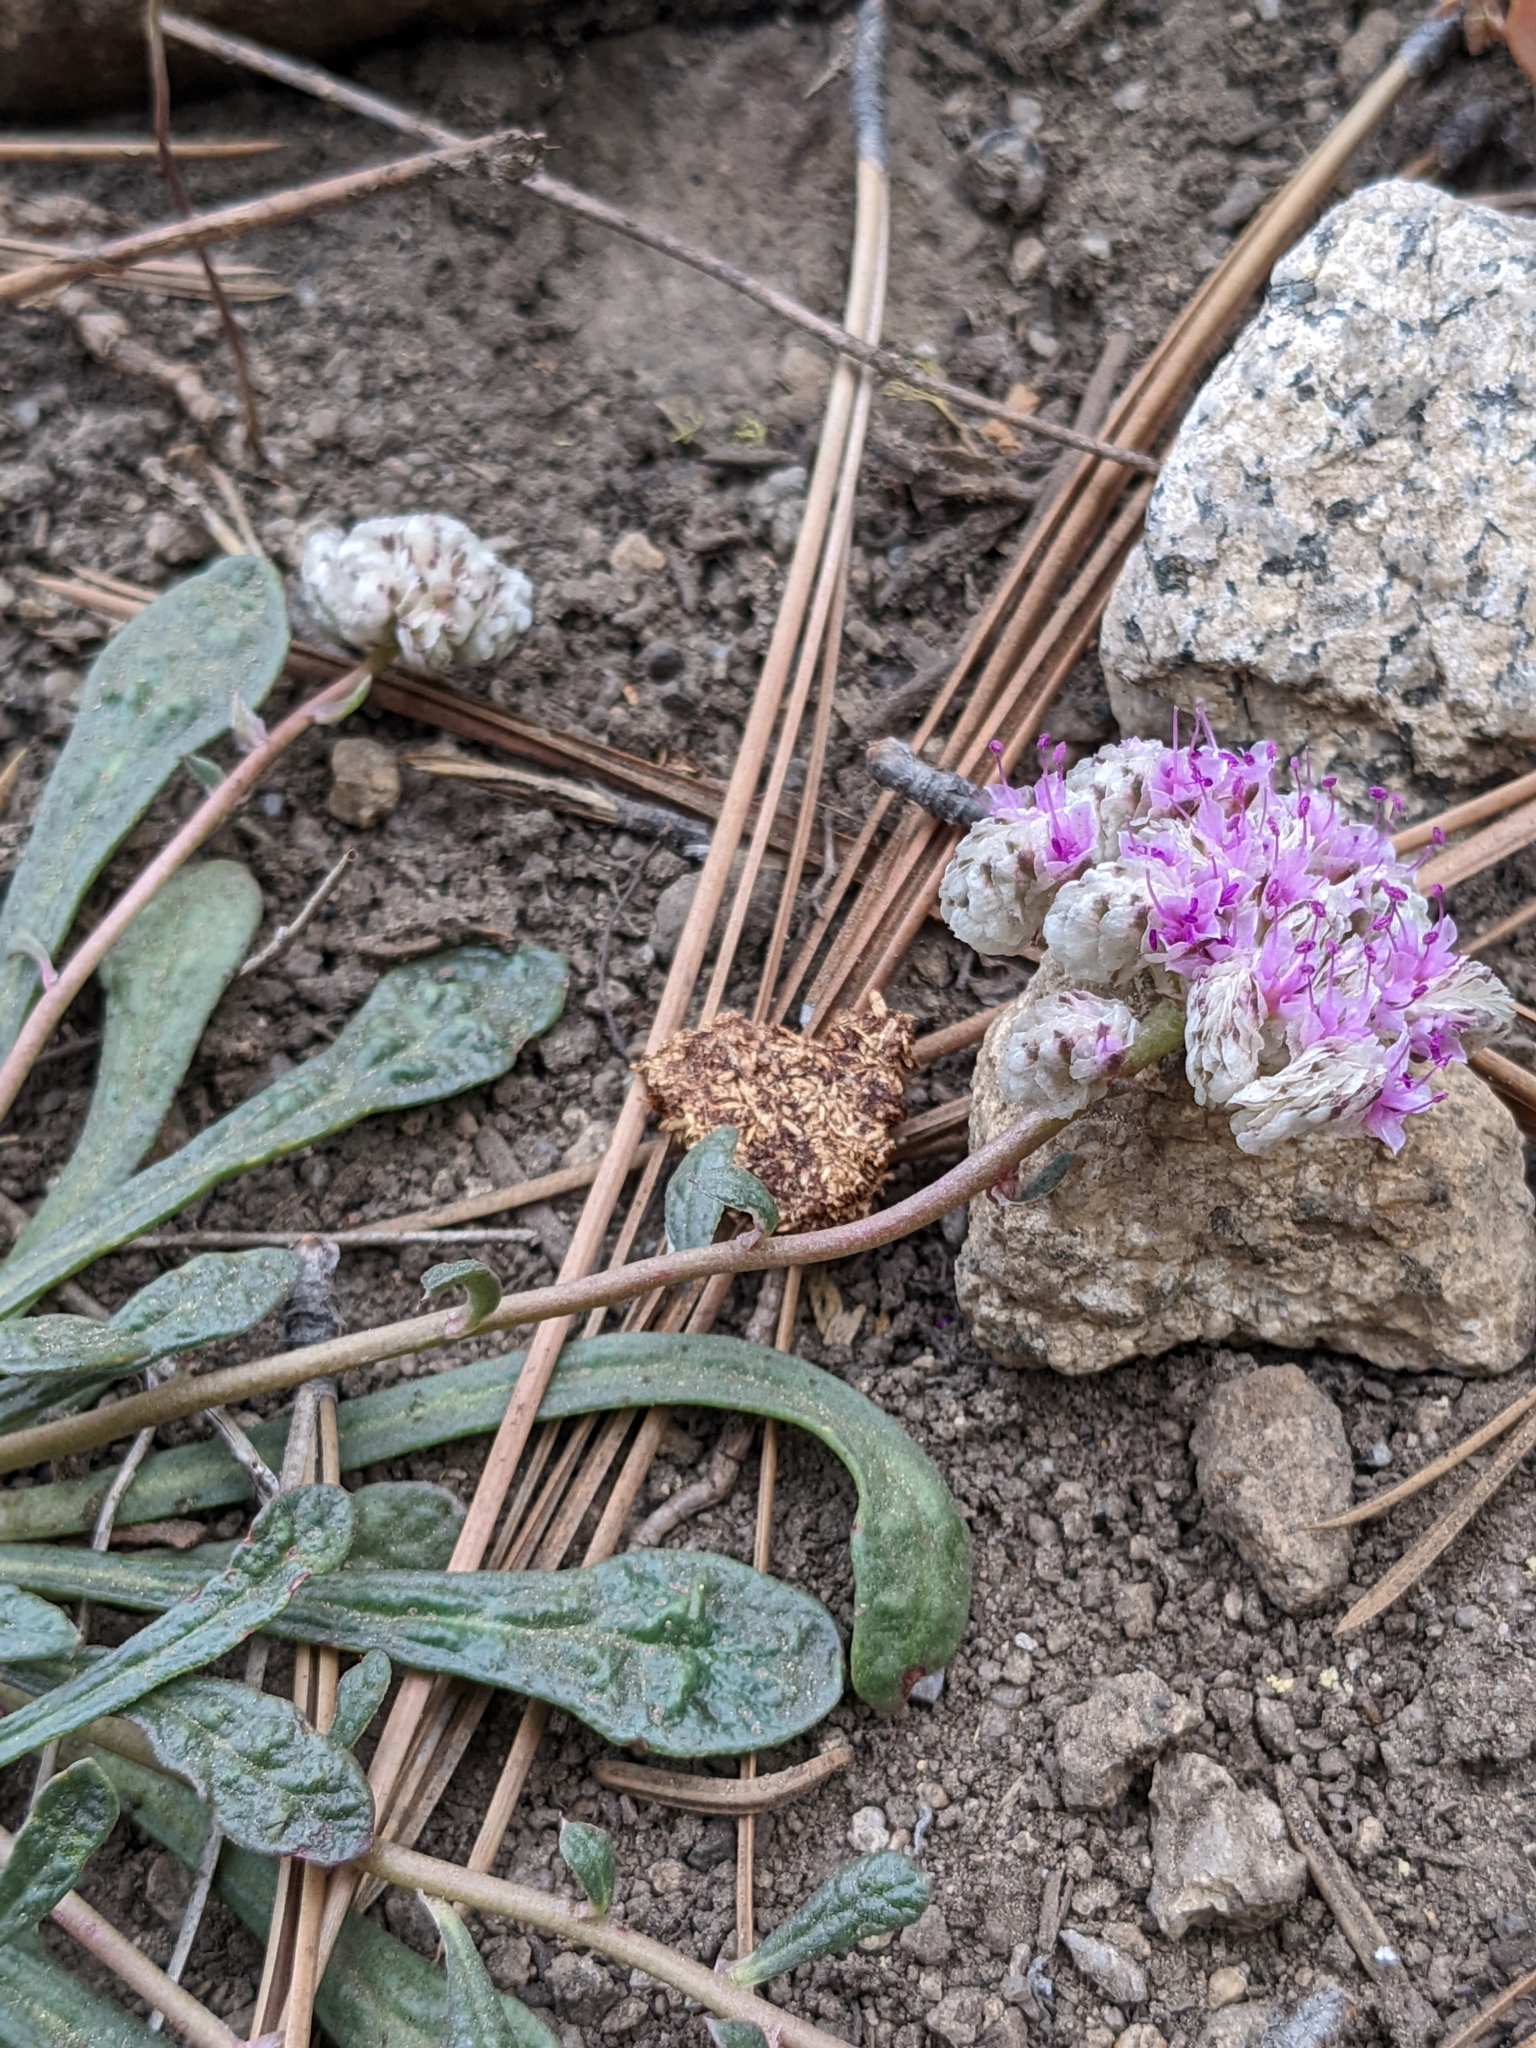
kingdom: Plantae
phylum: Tracheophyta
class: Magnoliopsida
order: Caryophyllales
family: Montiaceae
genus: Calyptridium
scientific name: Calyptridium monospermum
